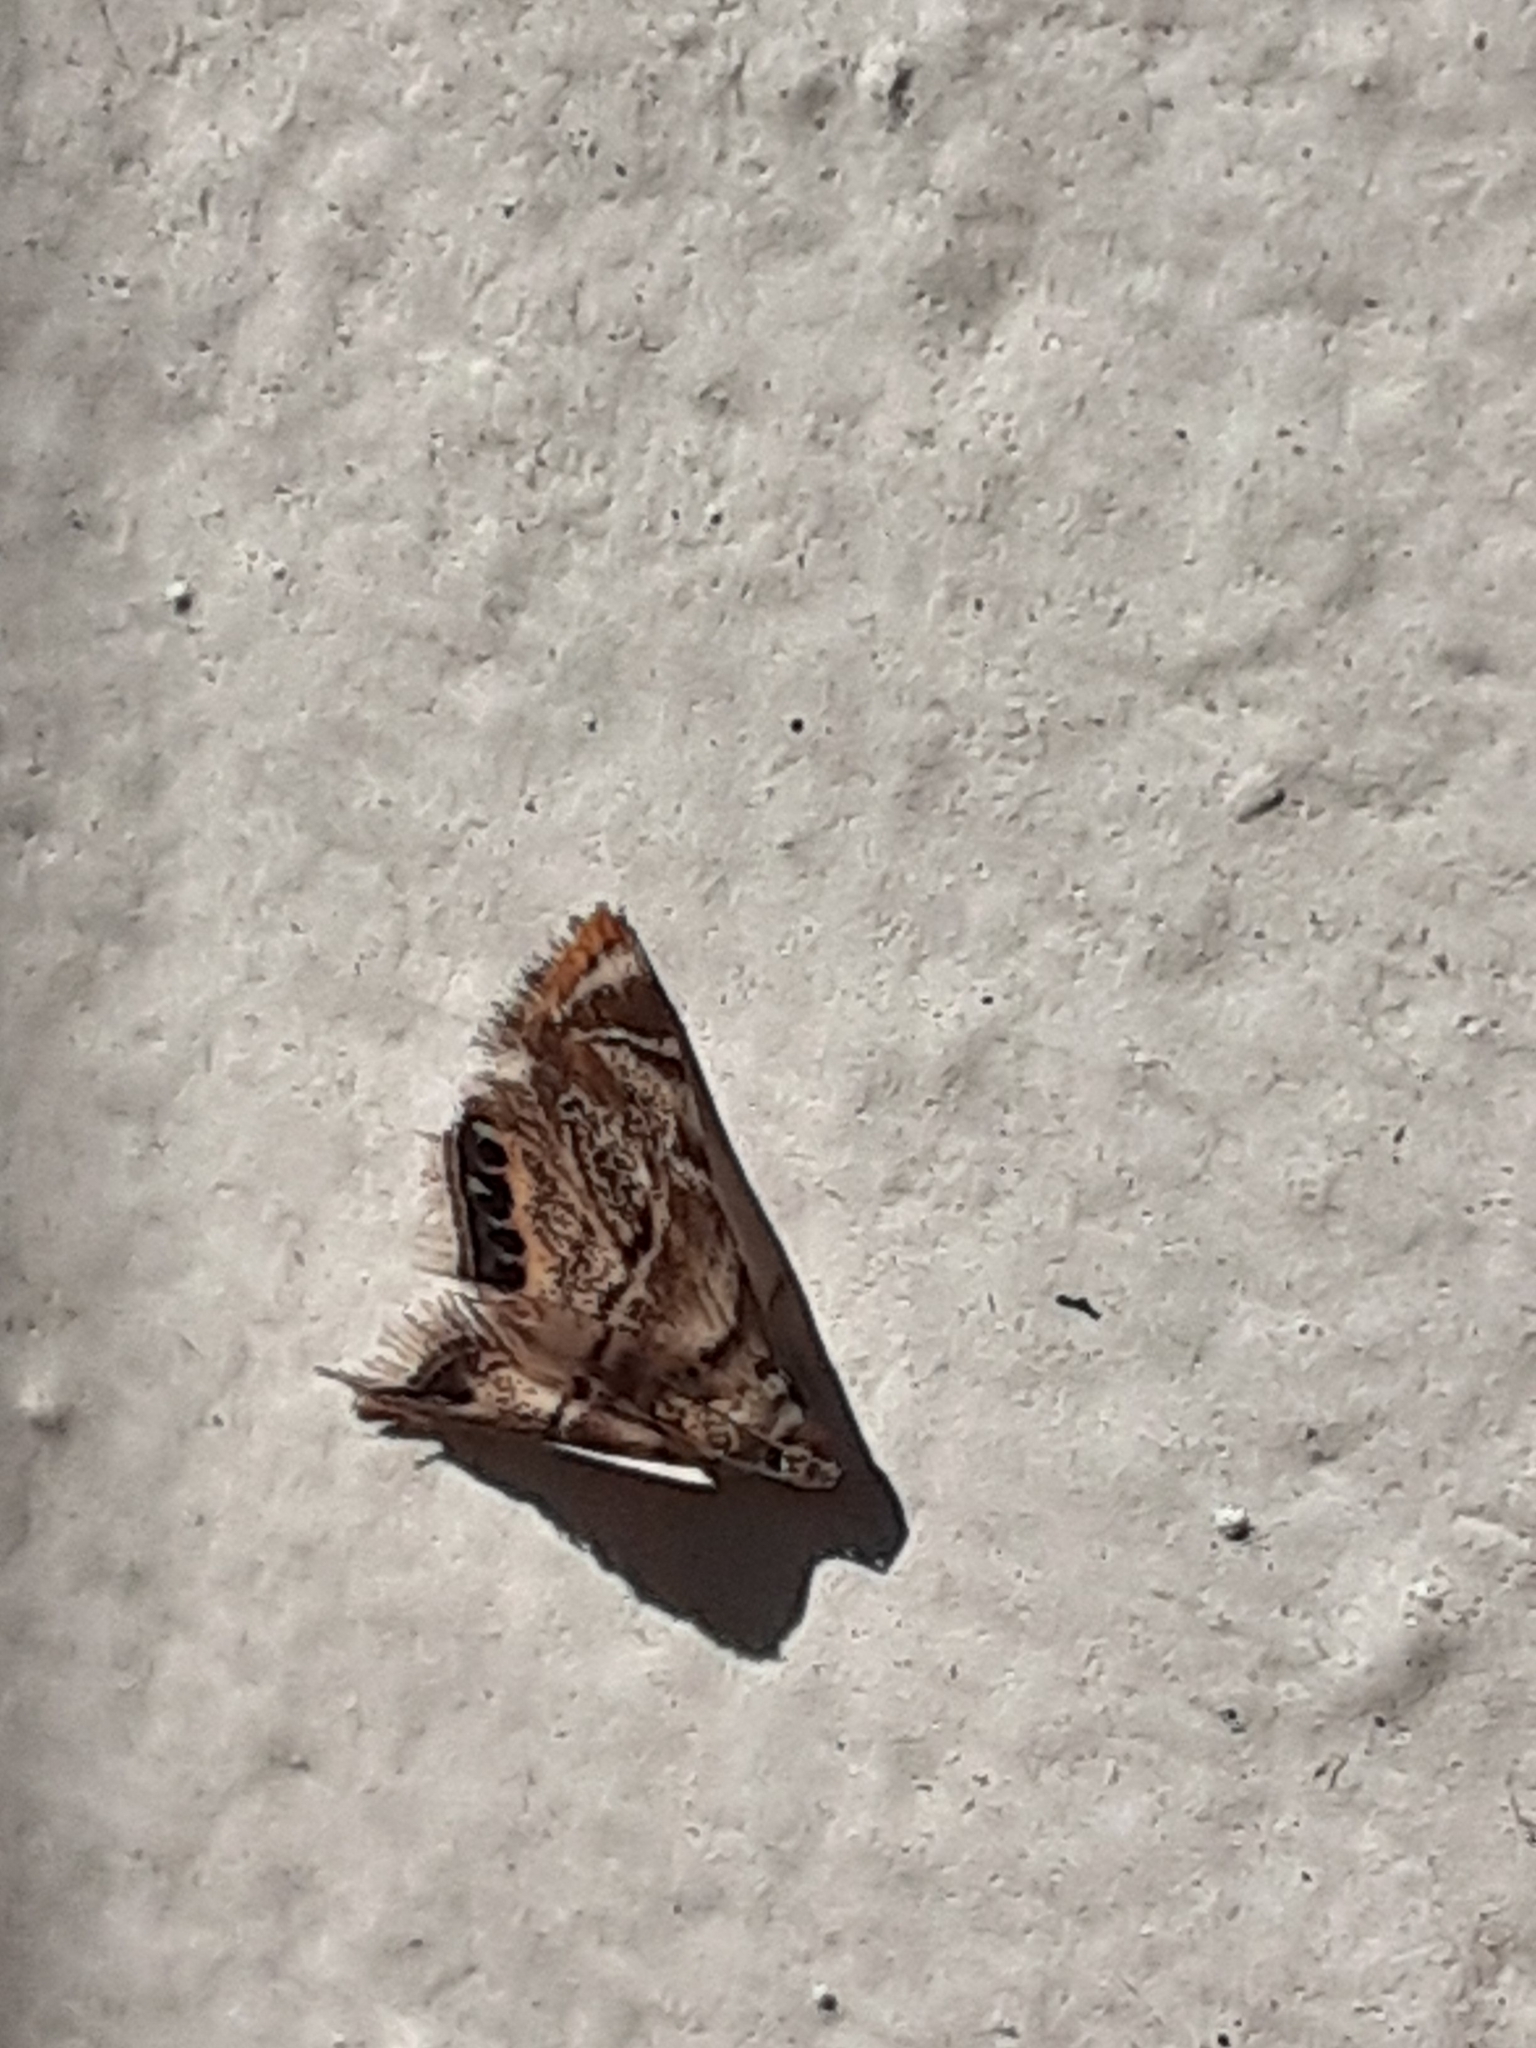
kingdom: Animalia
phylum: Arthropoda
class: Insecta
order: Lepidoptera
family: Crambidae
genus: Eoparargyractis
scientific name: Eoparargyractis irroratalis
